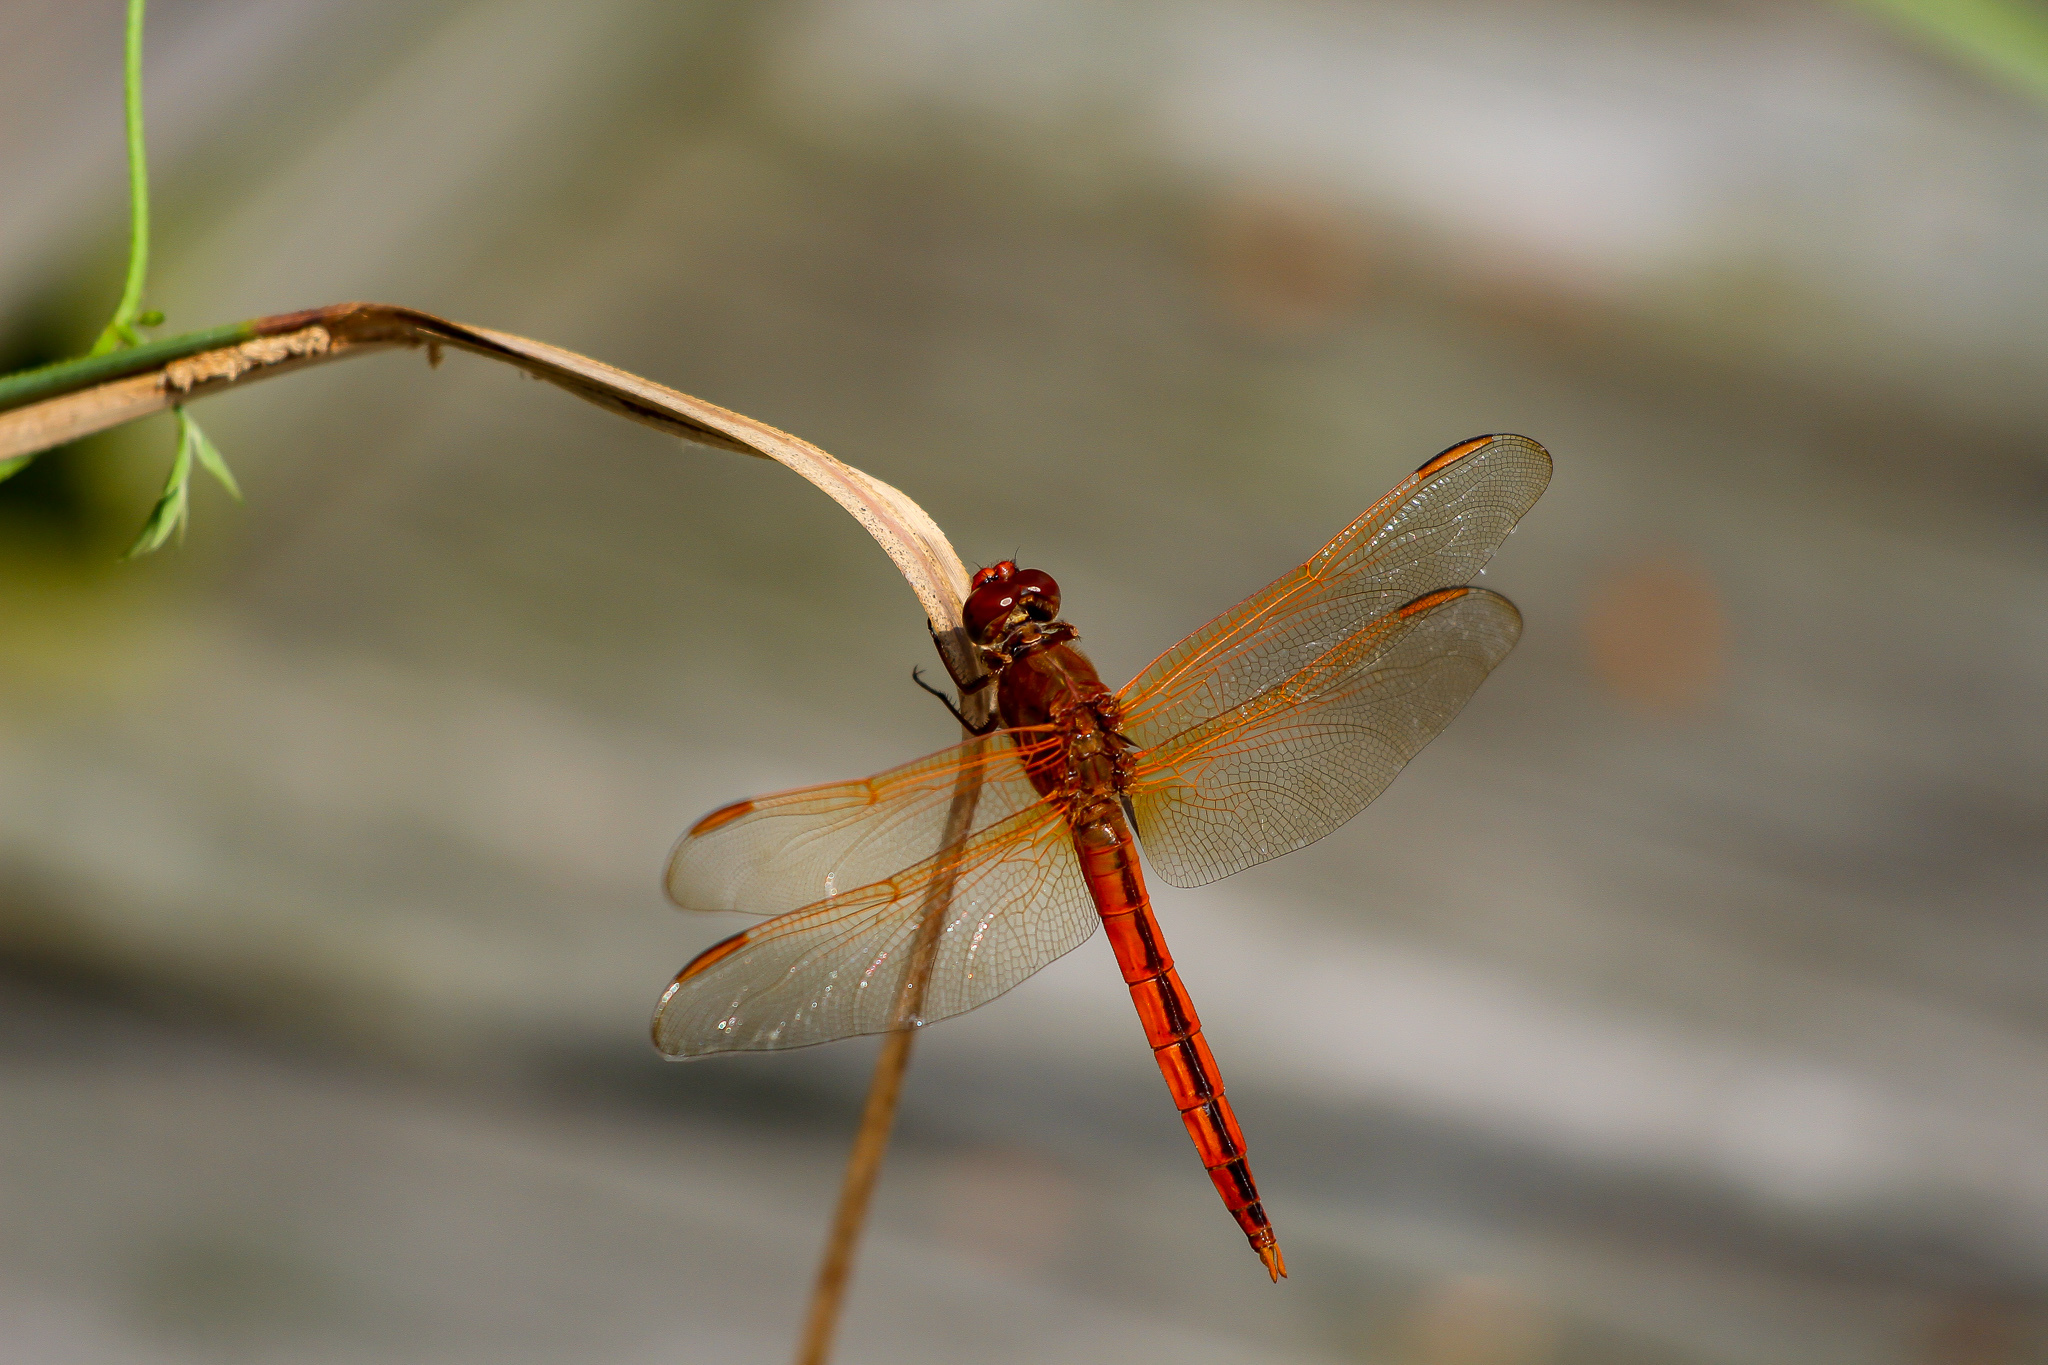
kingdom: Animalia
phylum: Arthropoda
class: Insecta
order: Odonata
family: Libellulidae
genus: Libellula
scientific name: Libellula needhami
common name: Needham's skimmer
